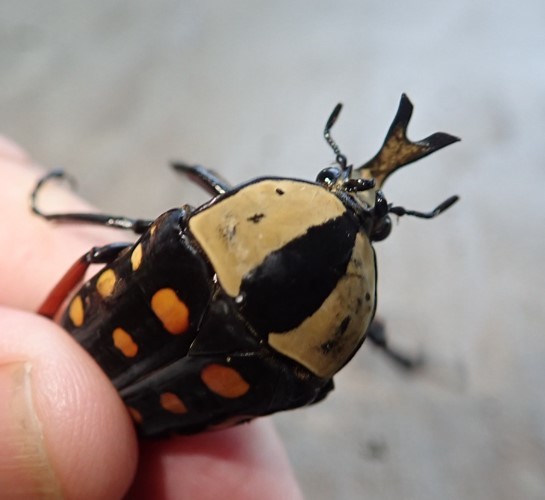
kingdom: Animalia
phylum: Arthropoda
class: Insecta
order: Coleoptera
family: Scarabaeidae
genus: Mecynorhina
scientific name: Mecynorhina passerinii
